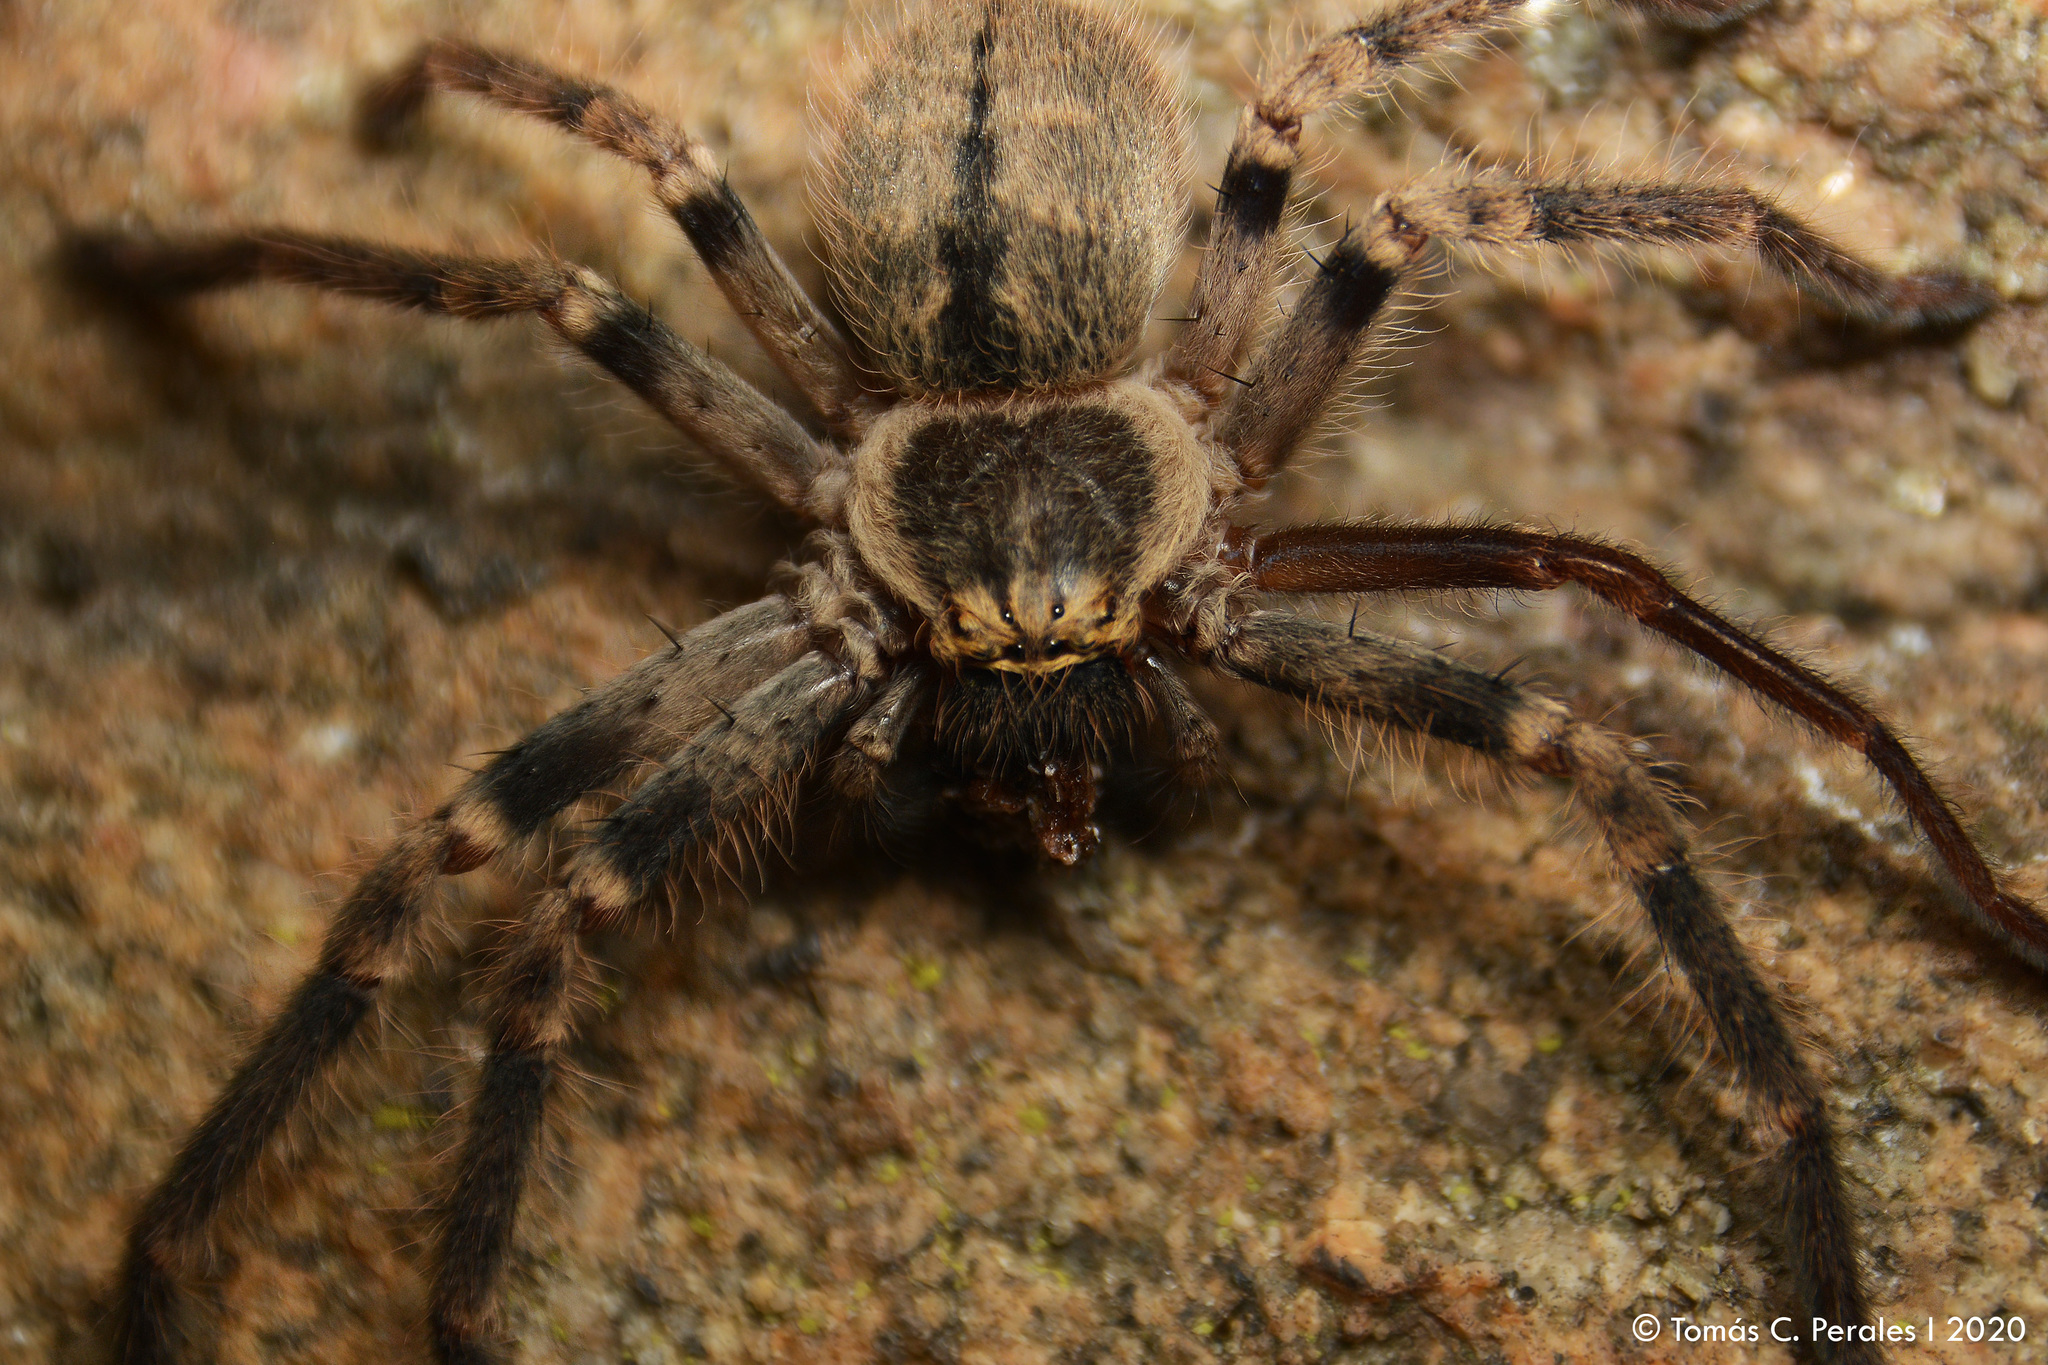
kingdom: Animalia
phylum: Arthropoda
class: Arachnida
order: Araneae
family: Sparassidae
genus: Polybetes
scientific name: Polybetes pythagoricus
